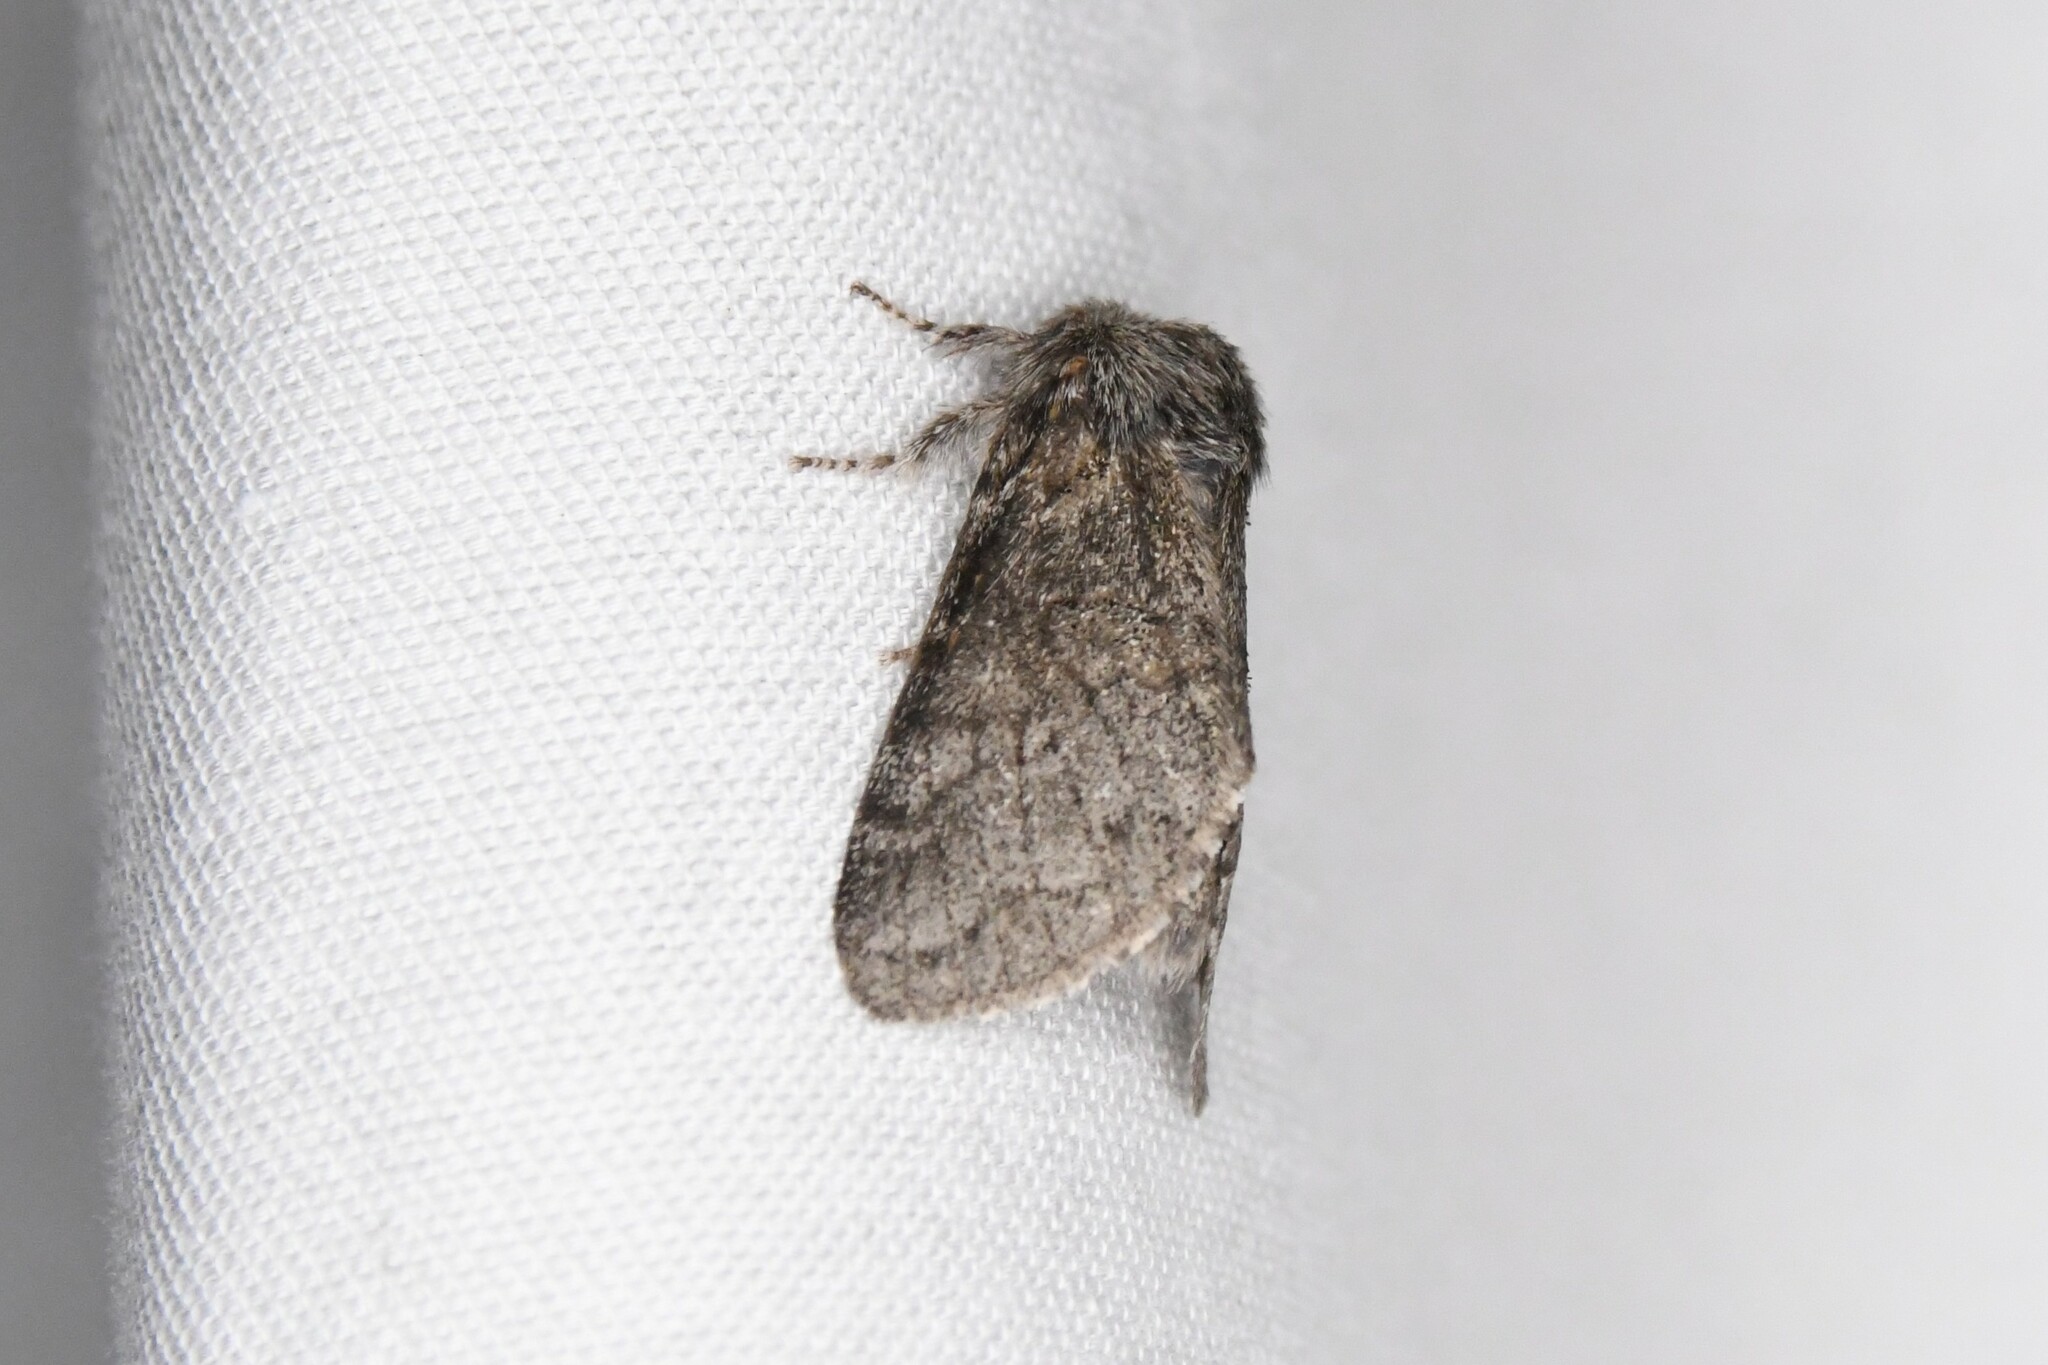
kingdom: Animalia
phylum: Arthropoda
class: Insecta
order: Lepidoptera
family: Notodontidae
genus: Gluphisia
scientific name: Gluphisia septentrionis
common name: Common gluphisia
